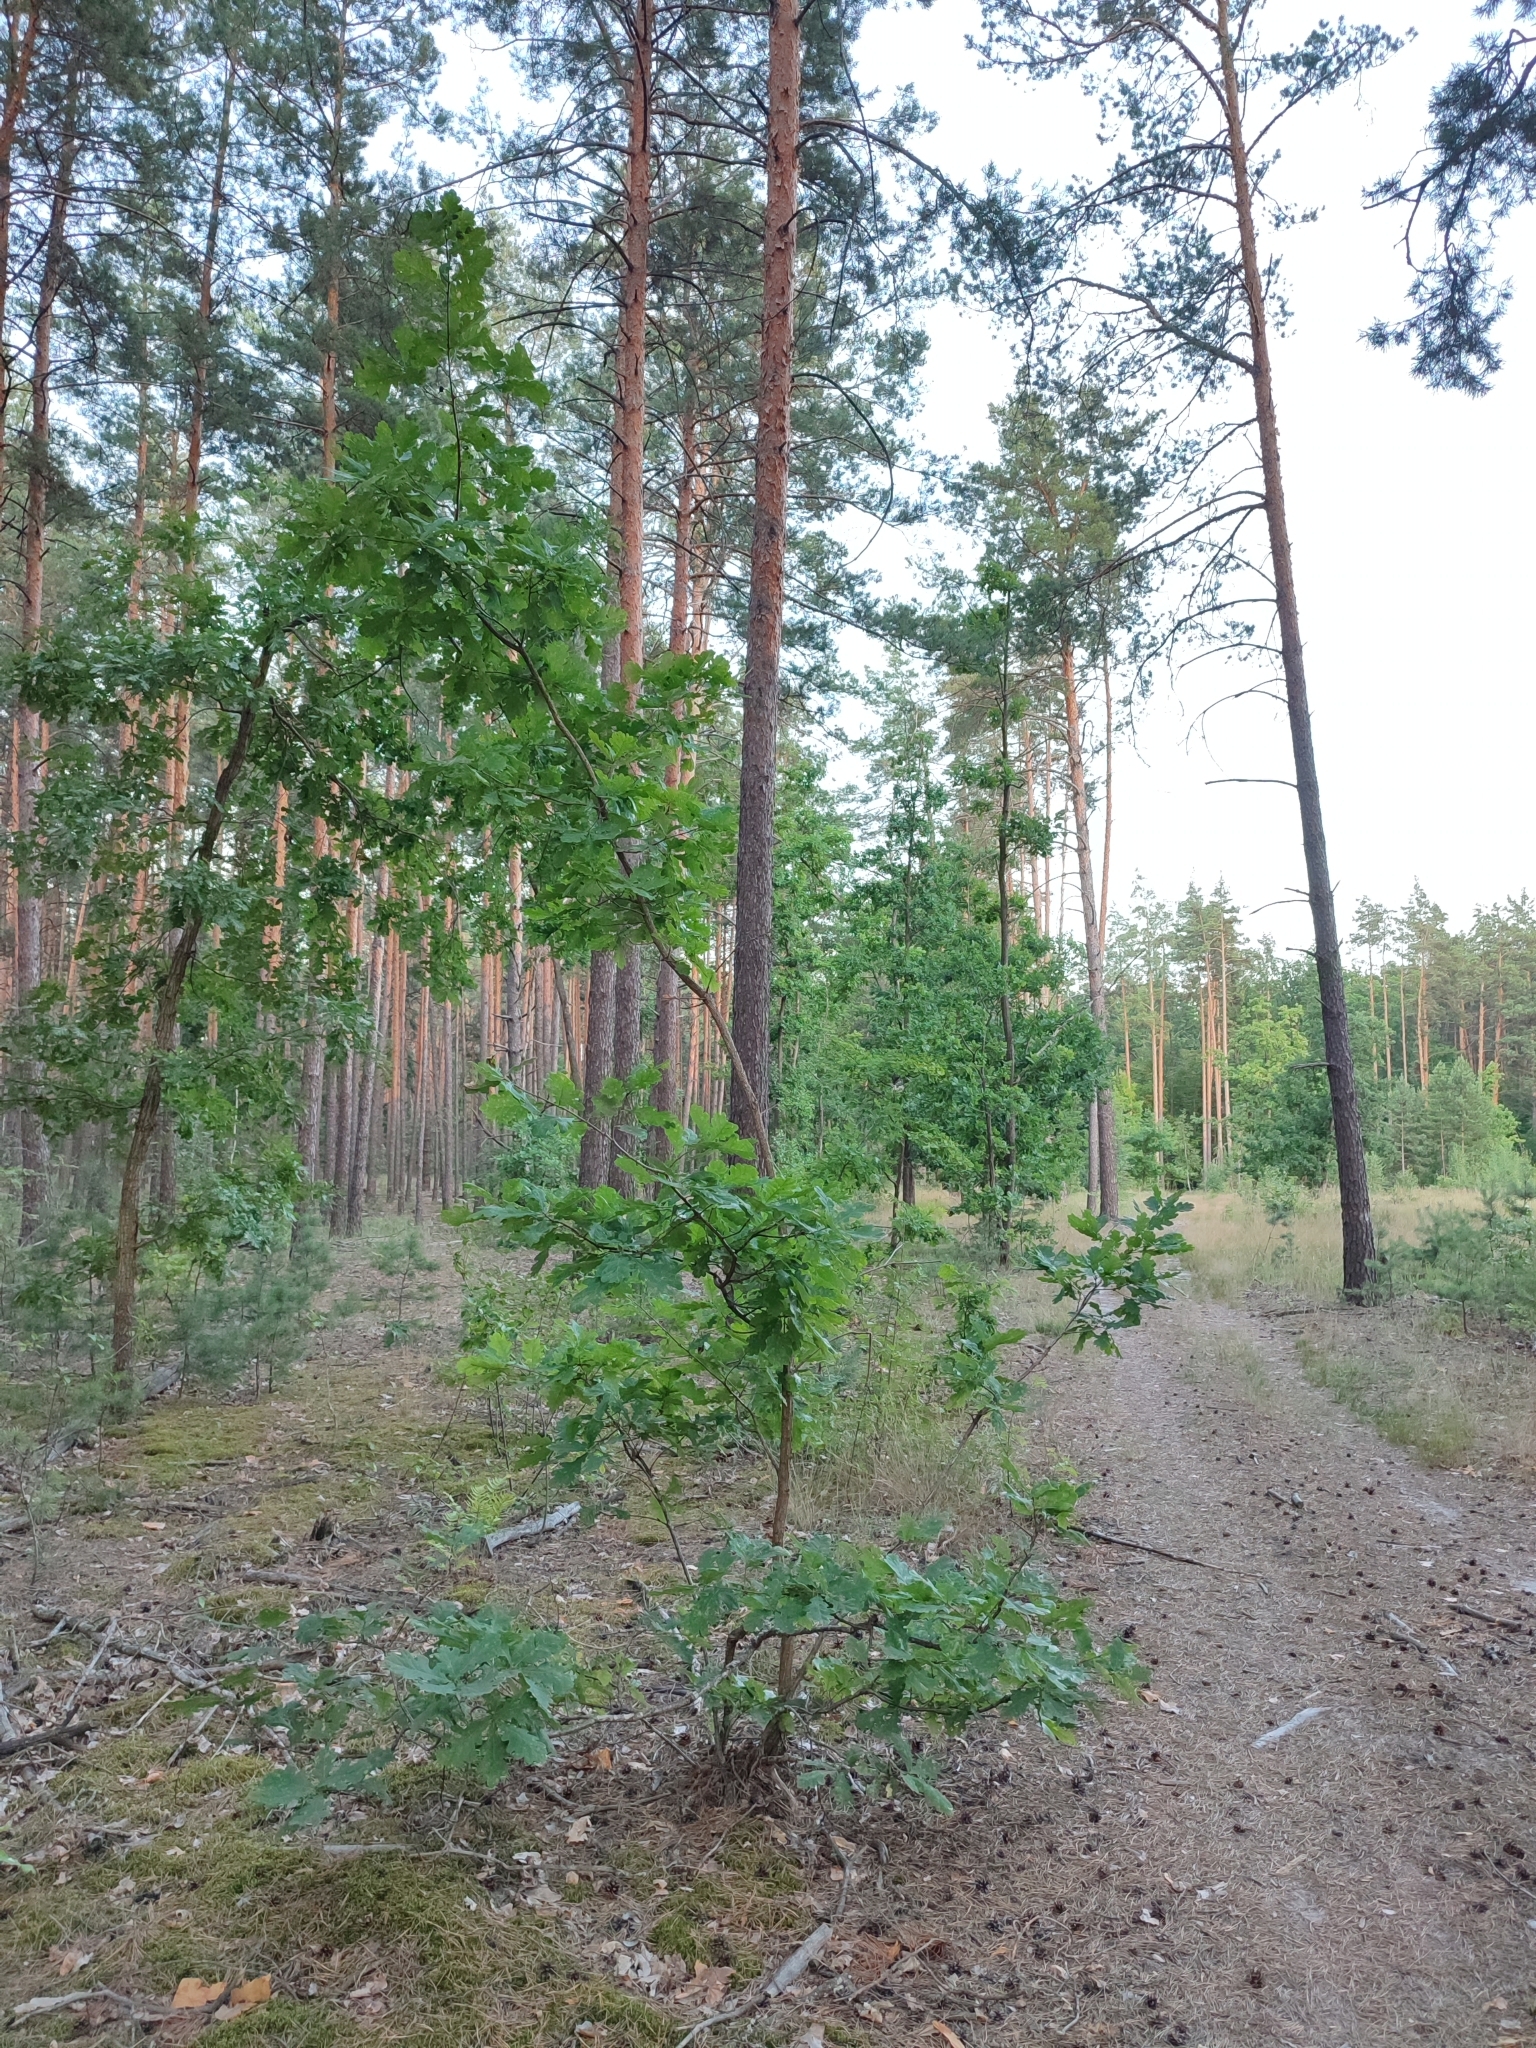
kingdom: Plantae
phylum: Tracheophyta
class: Magnoliopsida
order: Fagales
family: Fagaceae
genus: Quercus
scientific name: Quercus robur
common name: Pedunculate oak
